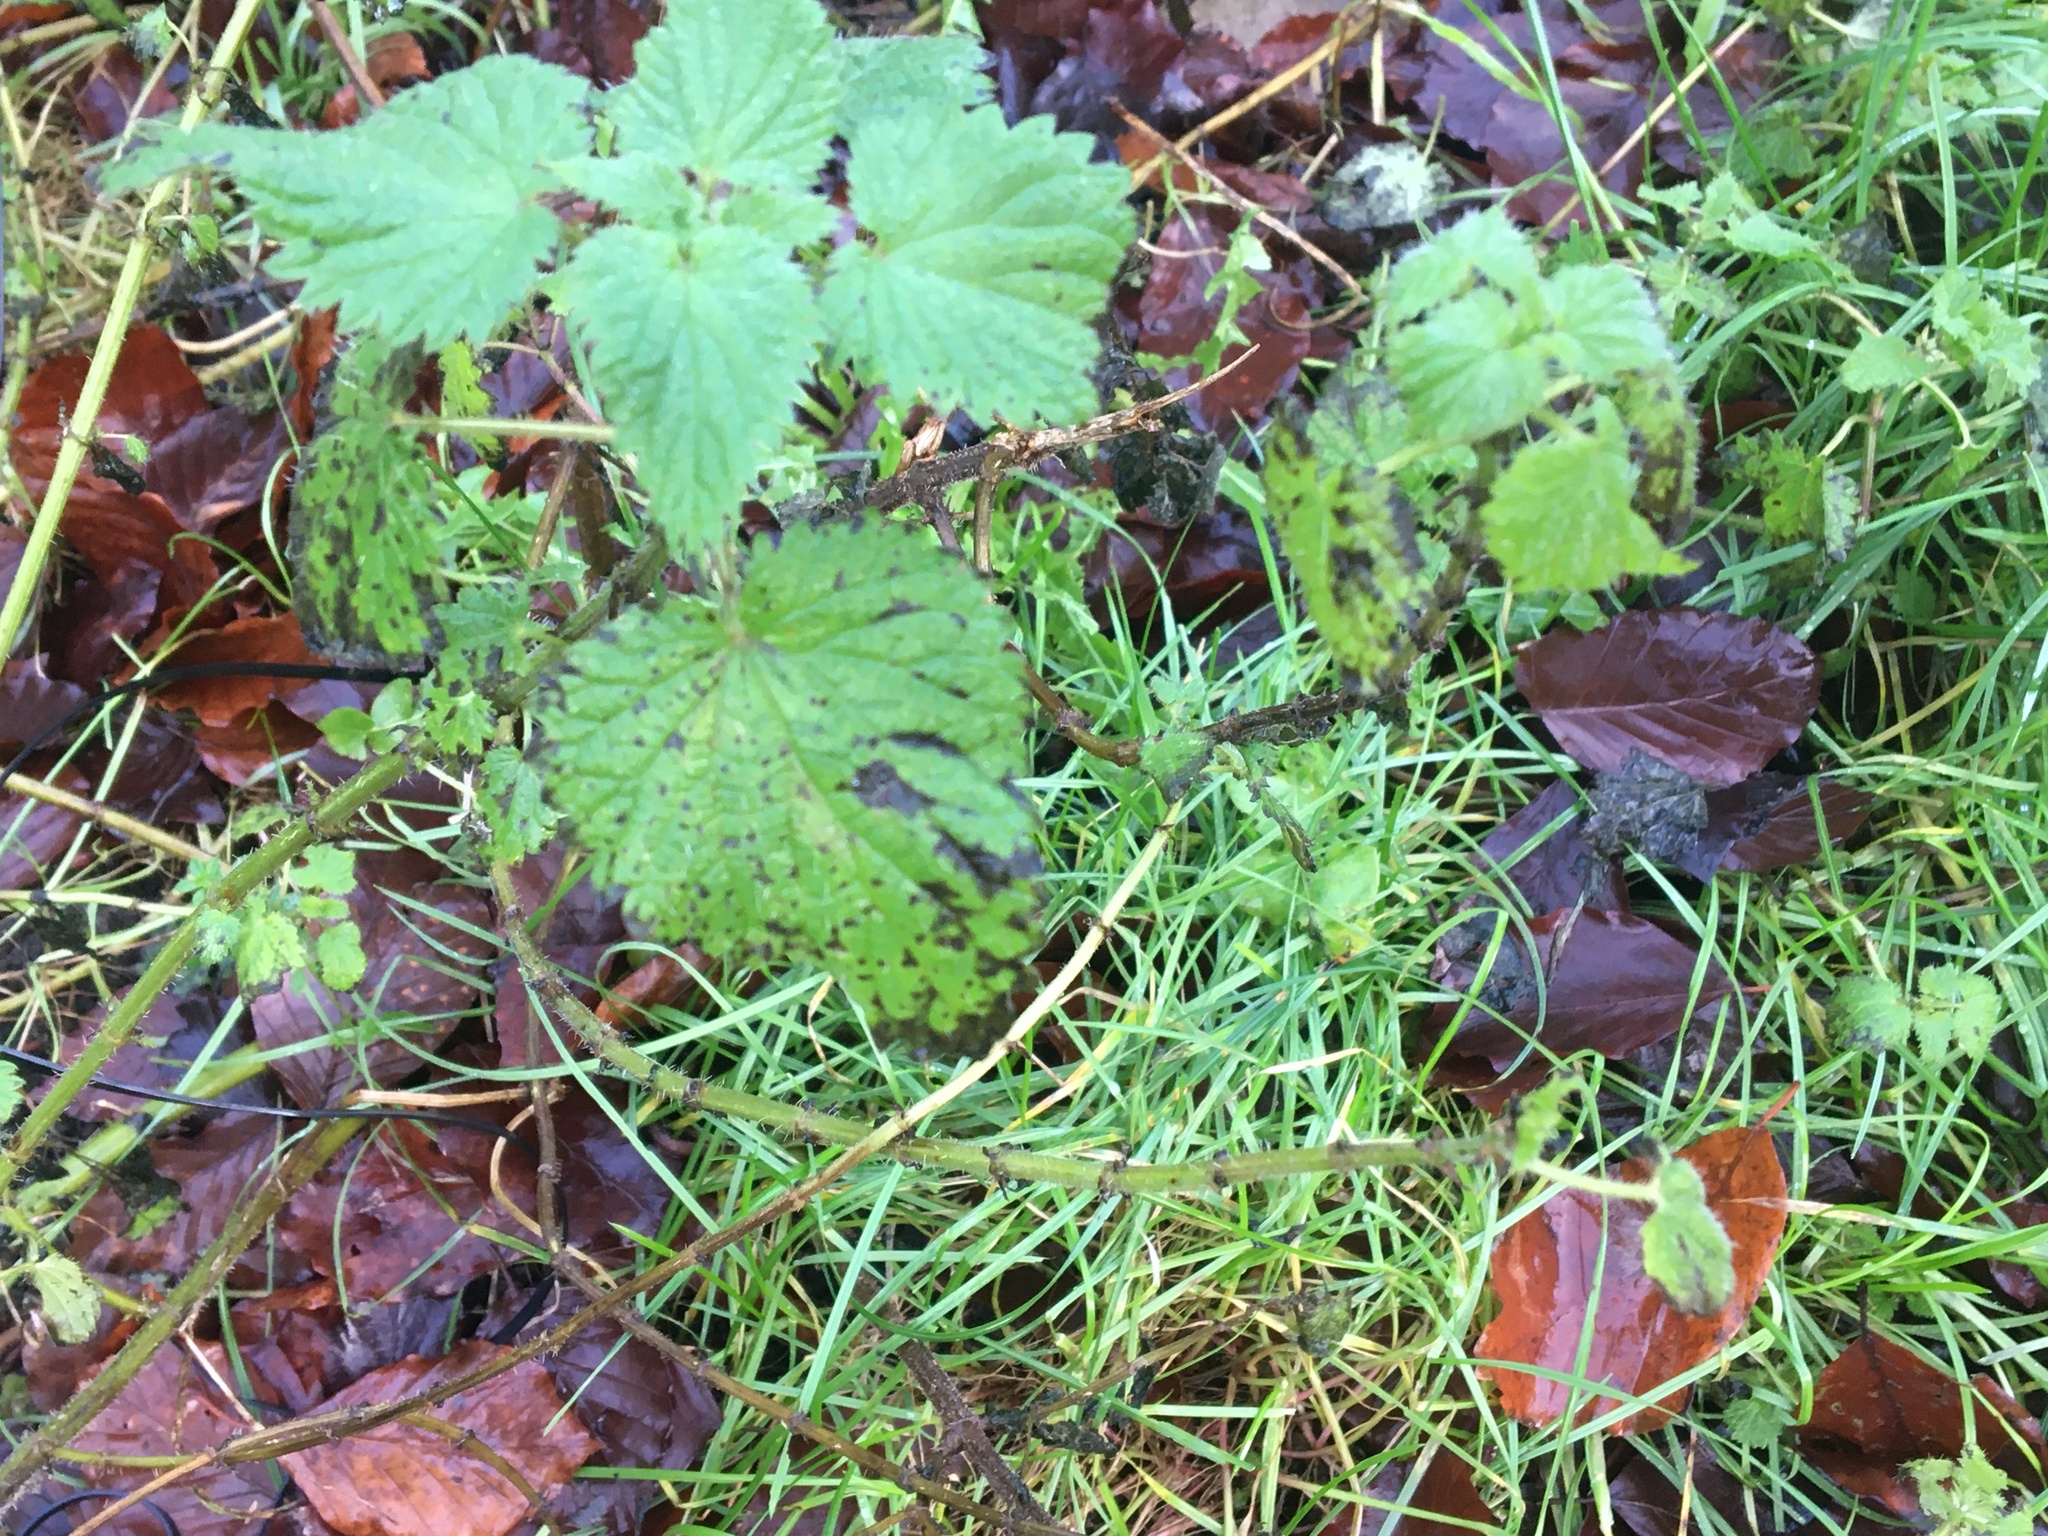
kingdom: Plantae
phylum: Tracheophyta
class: Magnoliopsida
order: Rosales
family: Urticaceae
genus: Urtica
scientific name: Urtica dioica
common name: Common nettle
